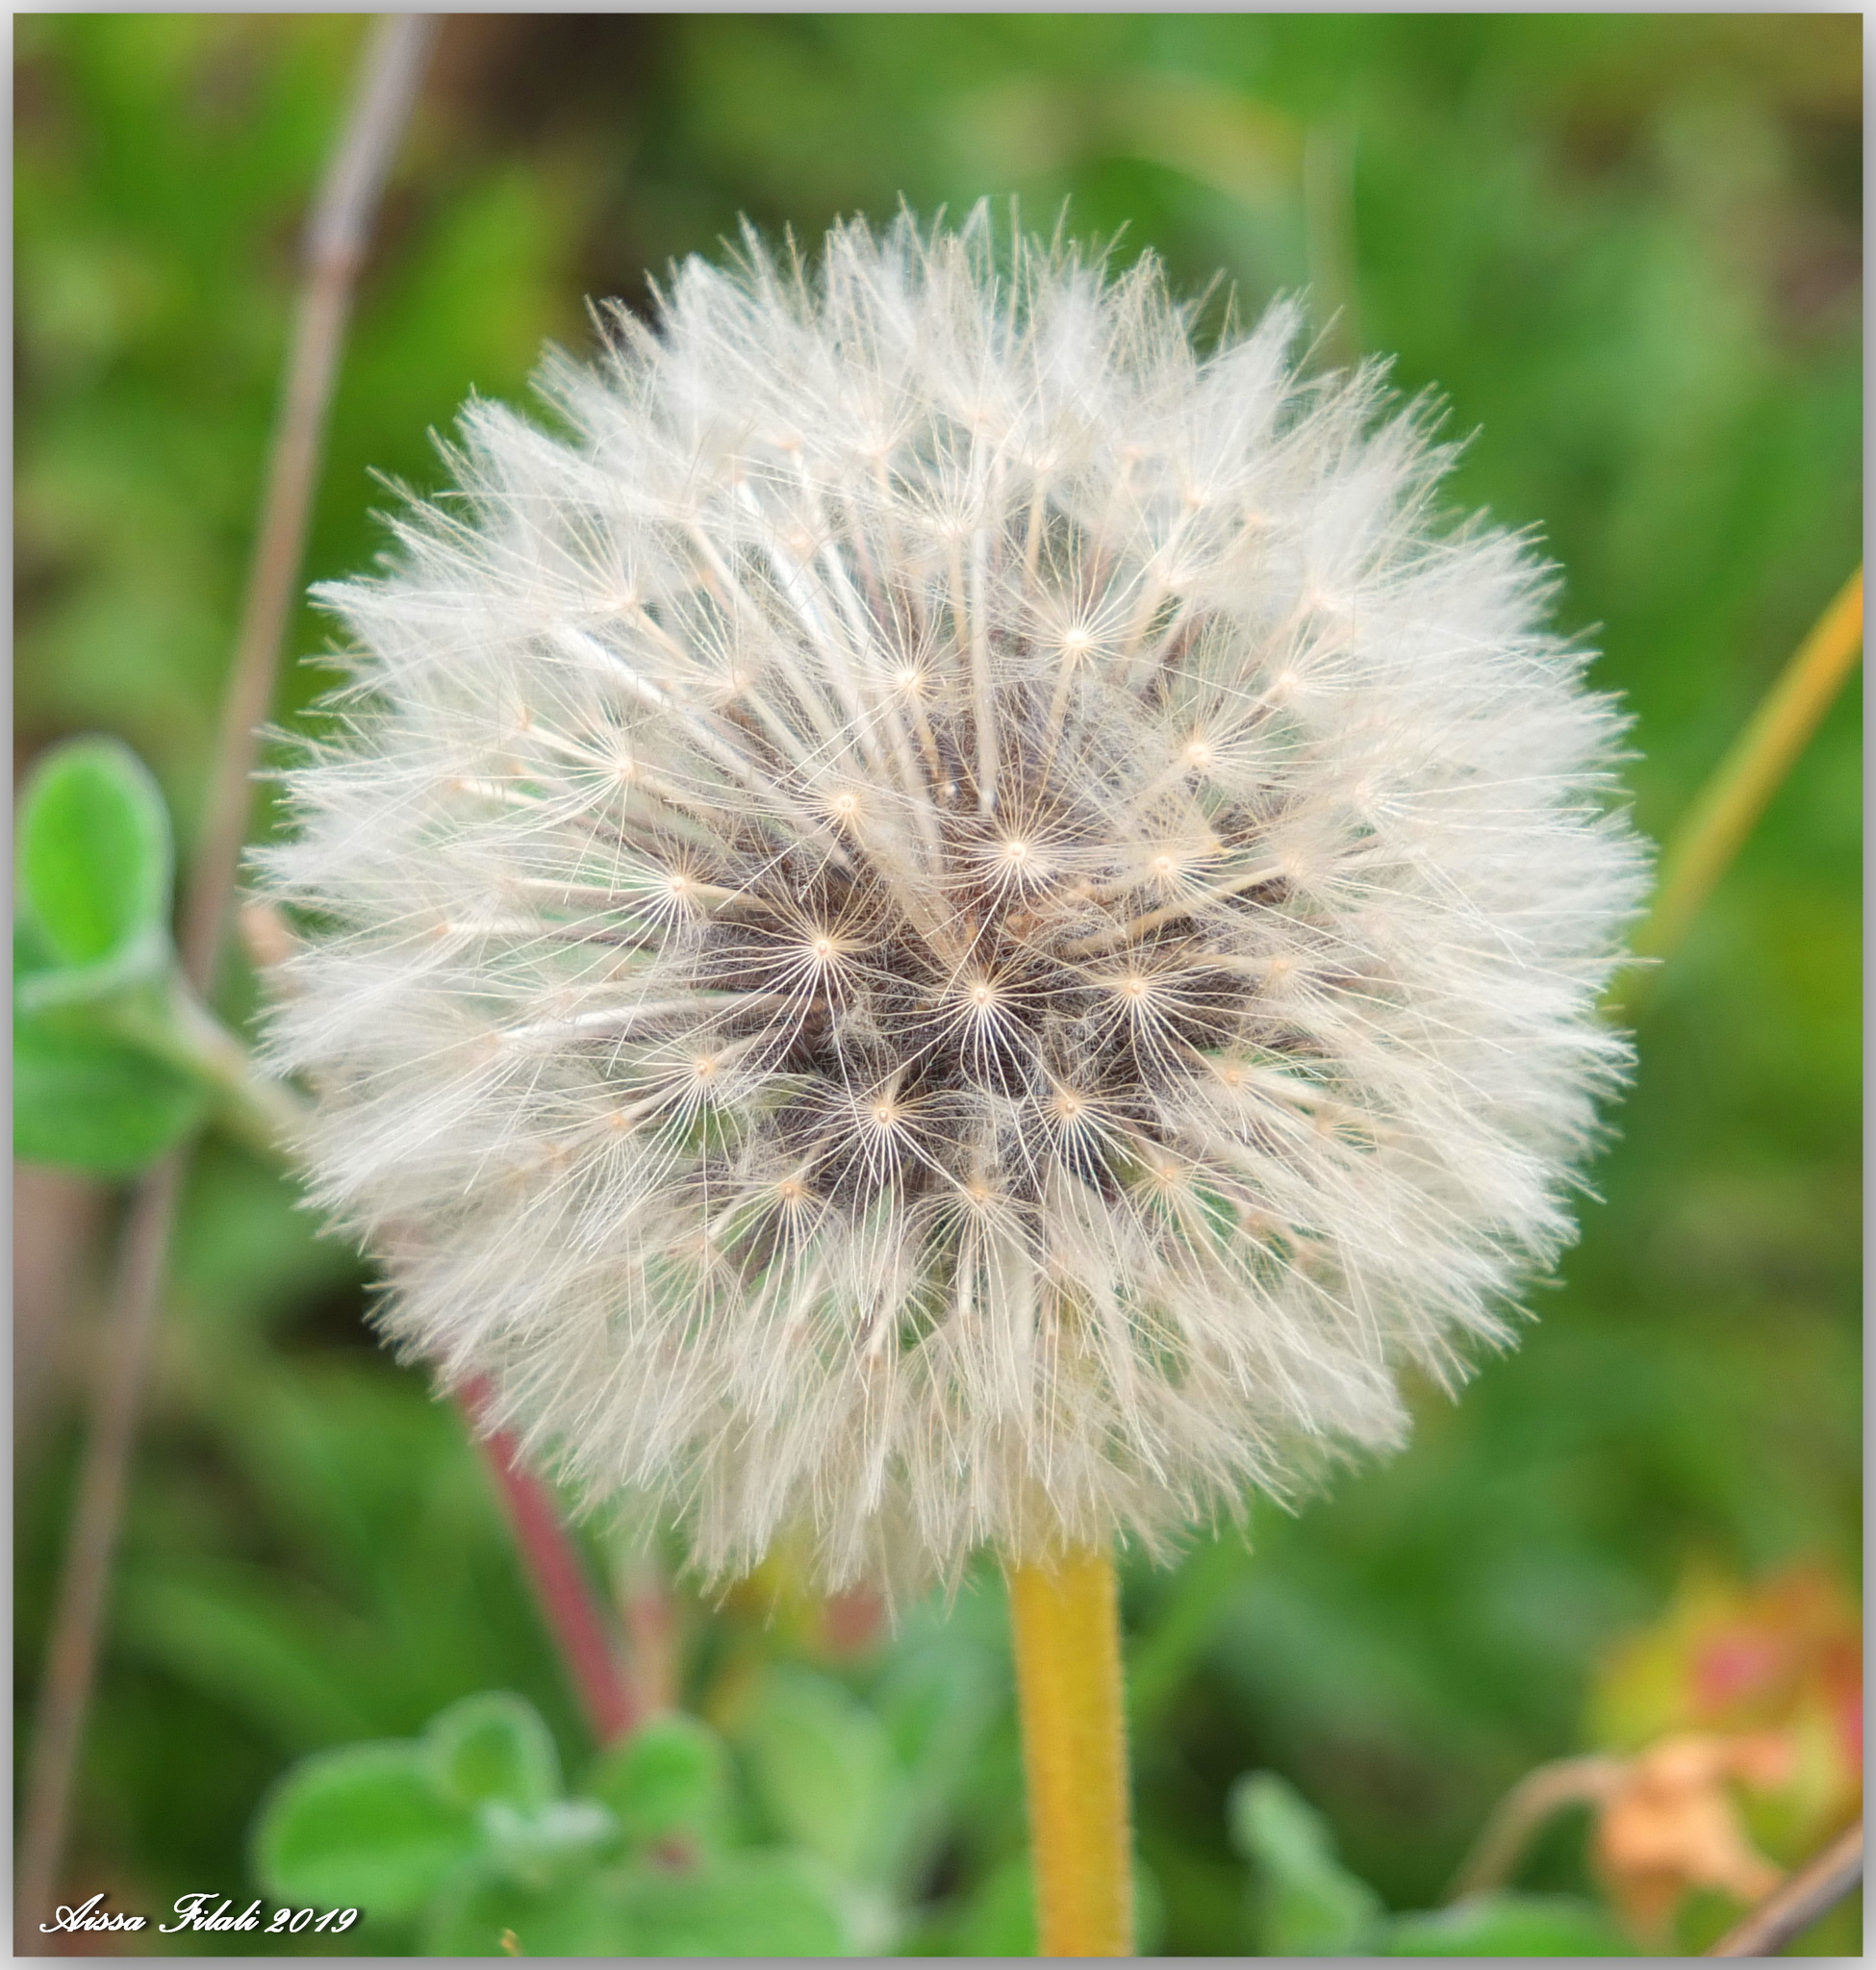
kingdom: Plantae
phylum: Tracheophyta
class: Magnoliopsida
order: Asterales
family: Asteraceae
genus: Taraxacum
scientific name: Taraxacum officinale
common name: Common dandelion
